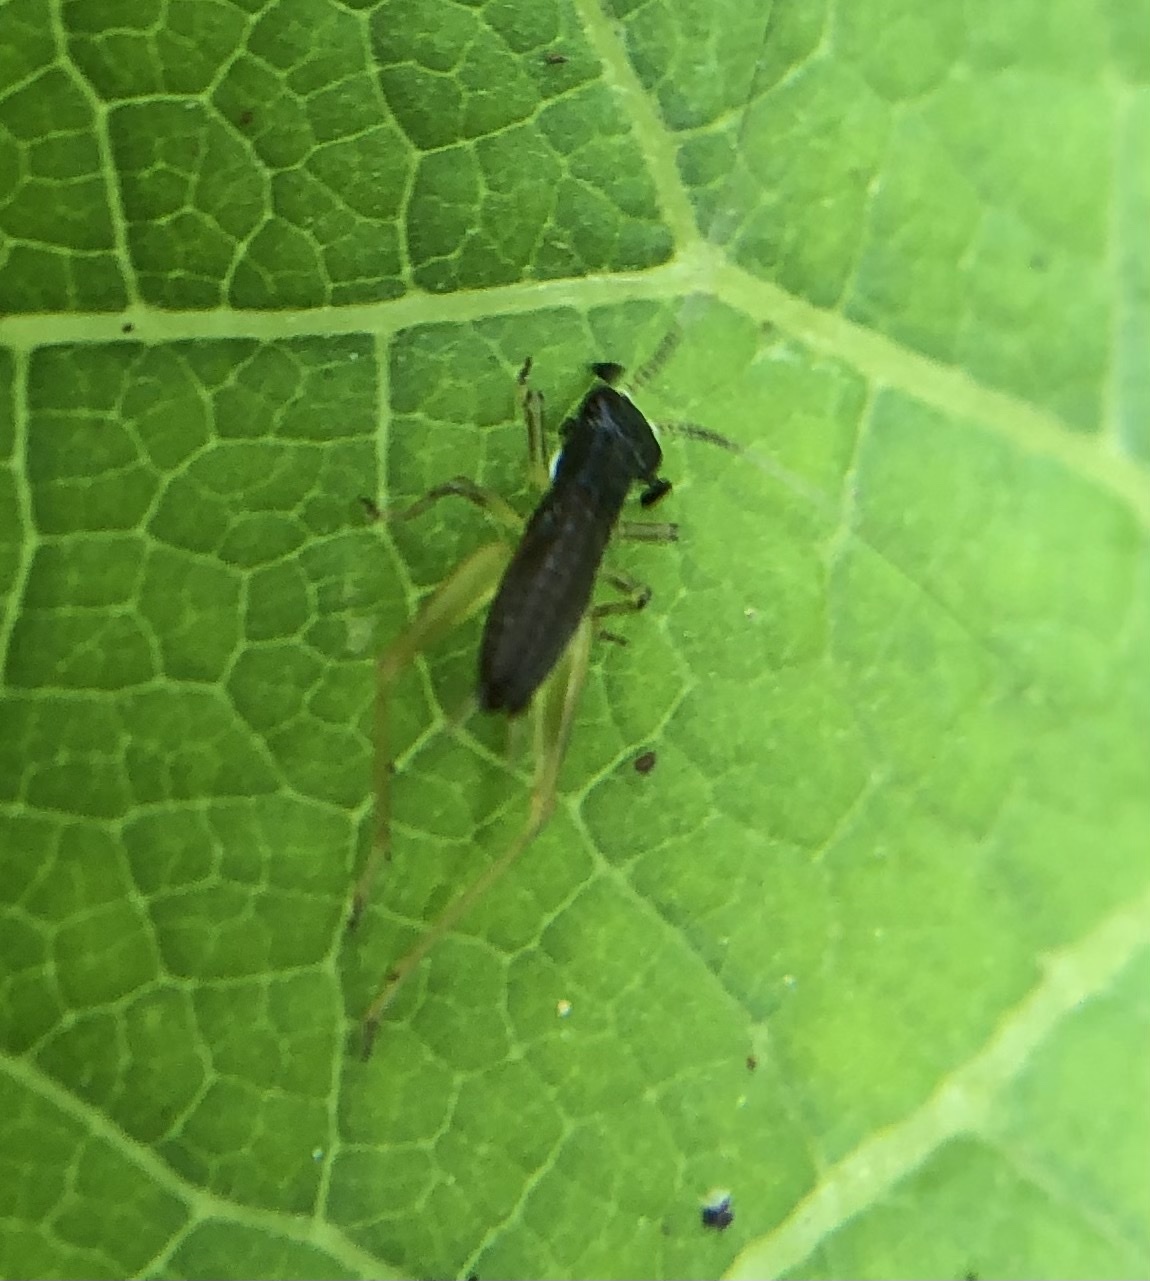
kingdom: Animalia
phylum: Arthropoda
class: Insecta
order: Orthoptera
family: Trigonidiidae
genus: Phyllopalpus
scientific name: Phyllopalpus pulchellus
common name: Handsome trig
